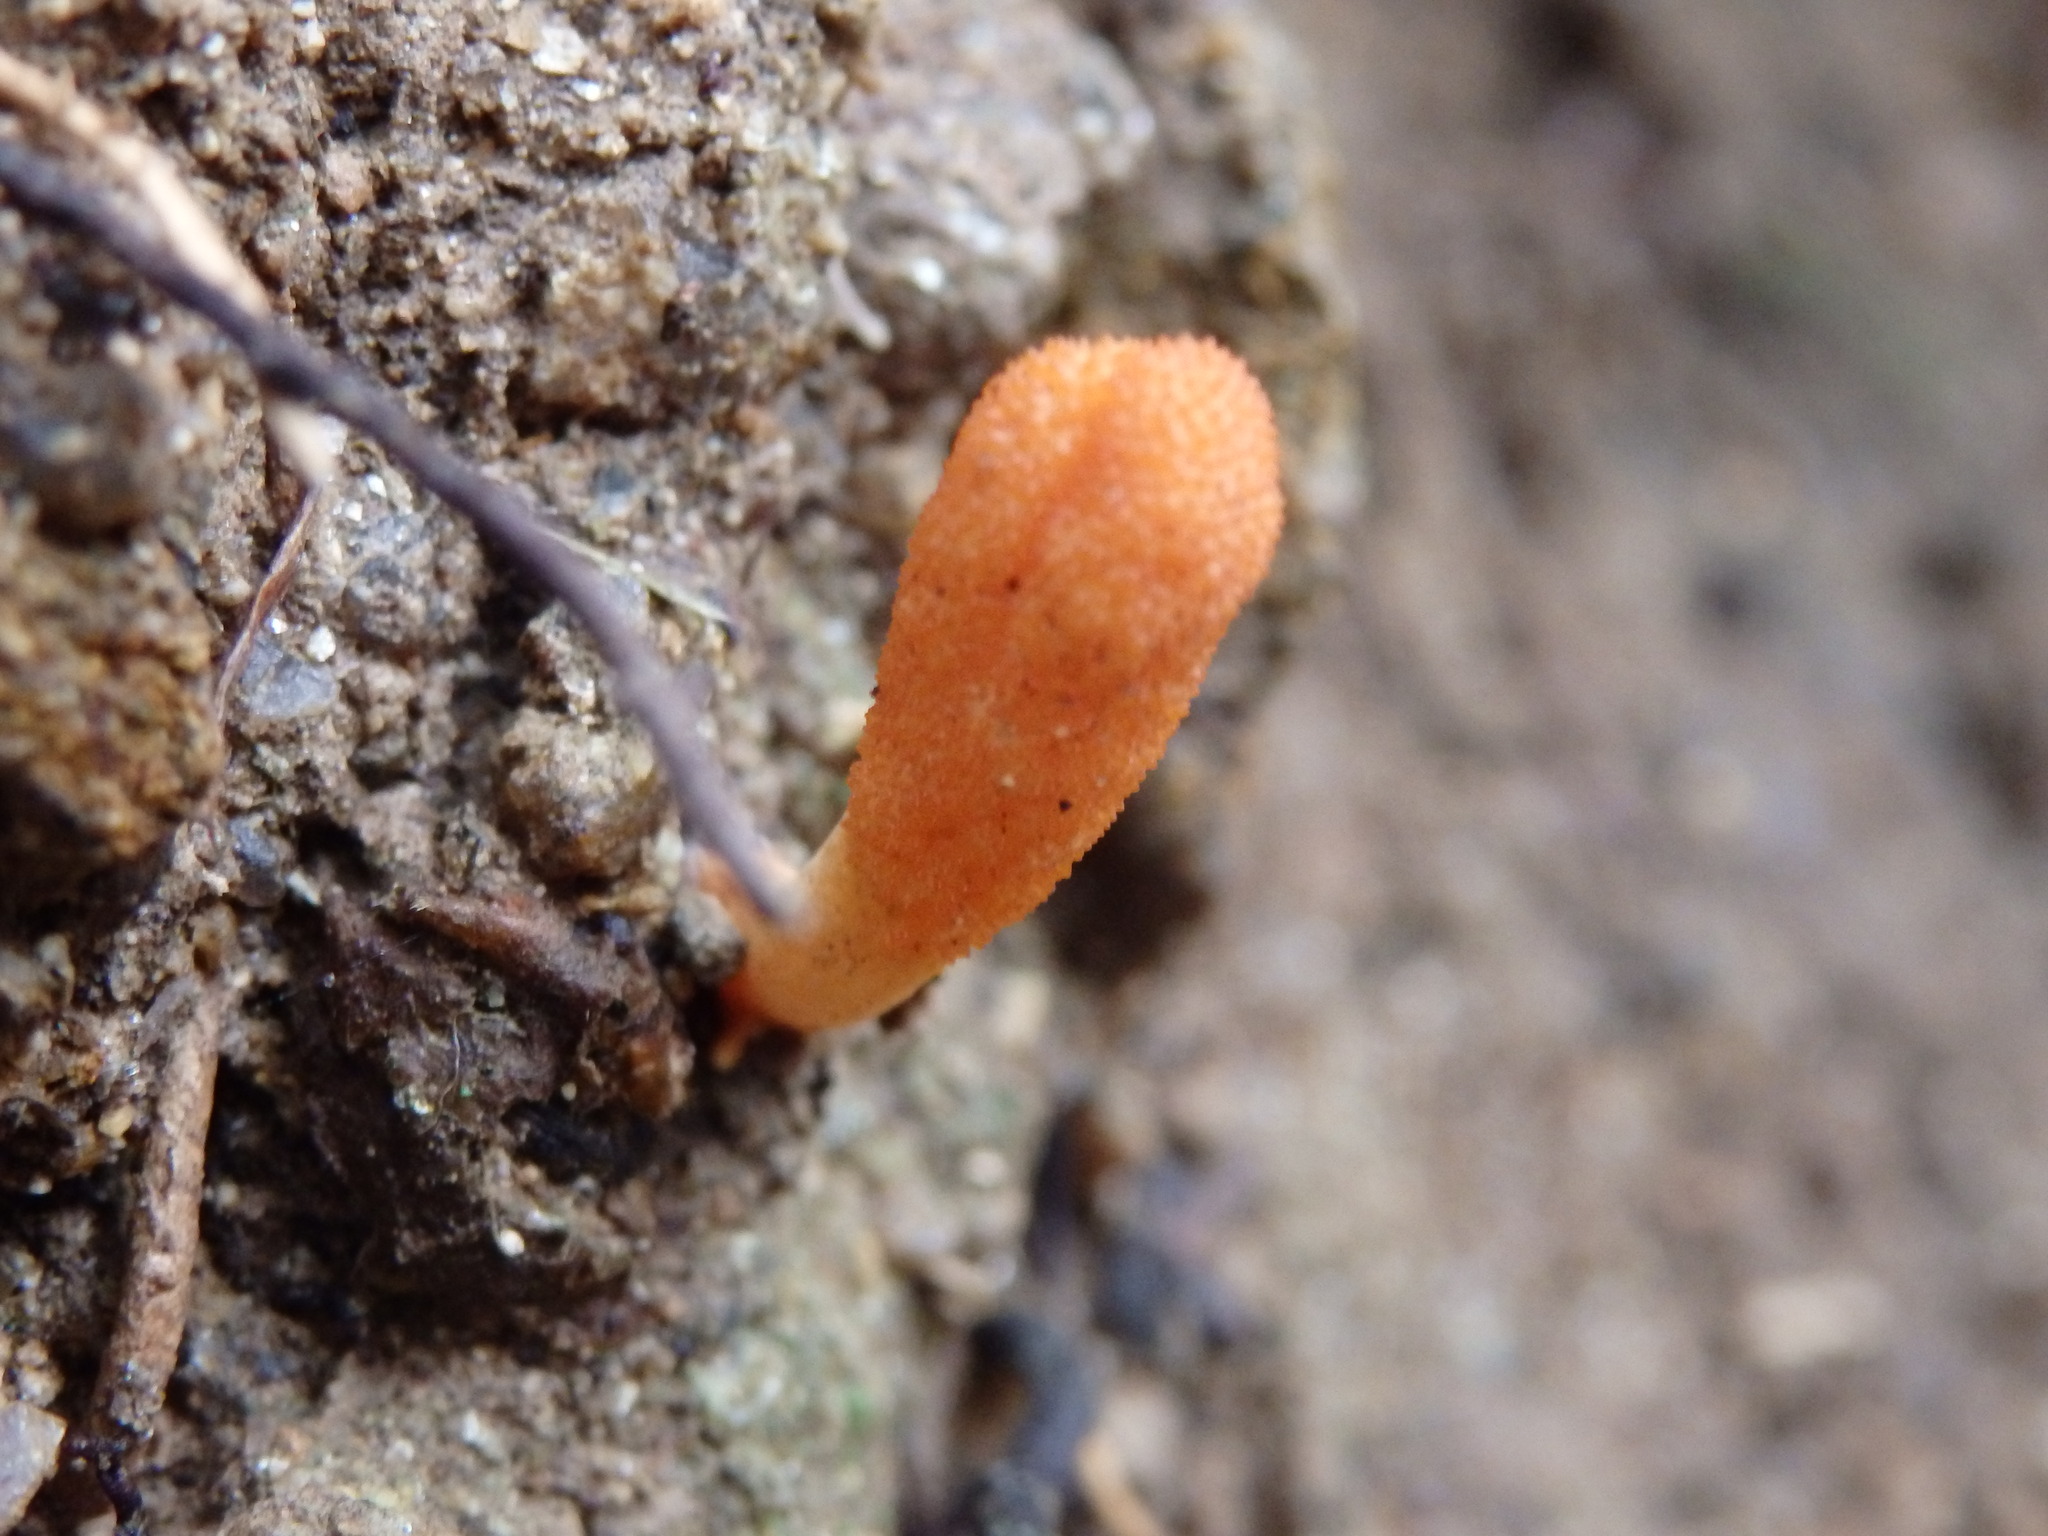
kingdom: Fungi
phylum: Ascomycota
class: Sordariomycetes
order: Hypocreales
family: Cordycipitaceae
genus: Cordyceps
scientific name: Cordyceps militaris
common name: Scarlet caterpillar fungus
